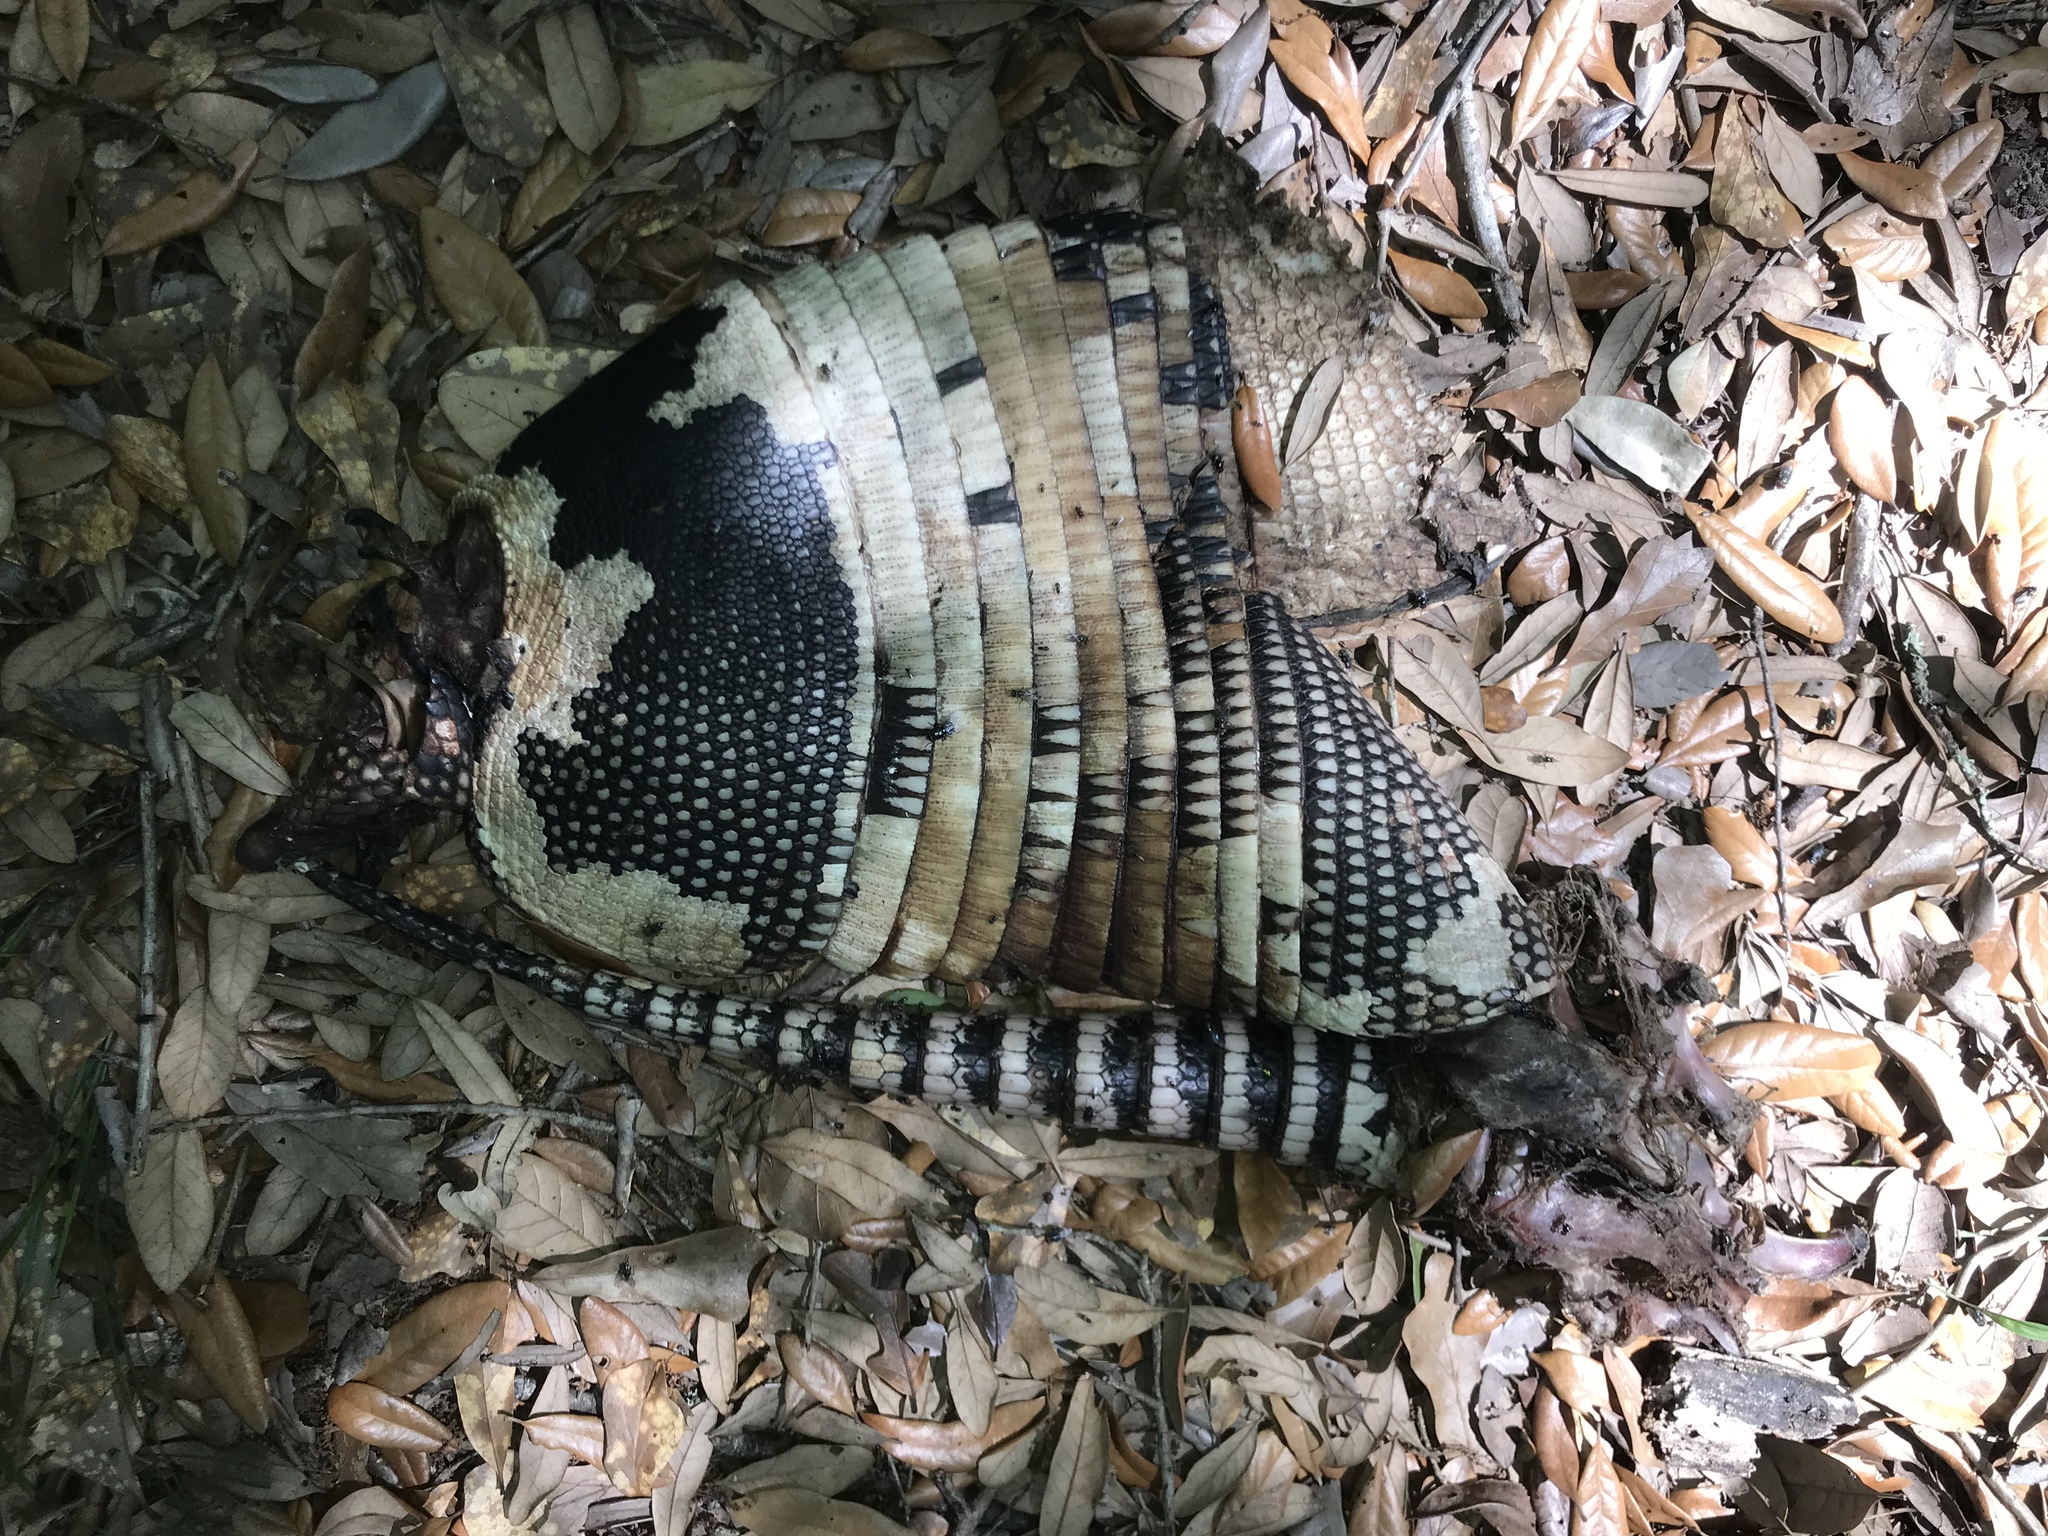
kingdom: Animalia
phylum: Chordata
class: Mammalia
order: Cingulata
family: Dasypodidae
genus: Dasypus
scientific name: Dasypus novemcinctus
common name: Nine-banded armadillo
